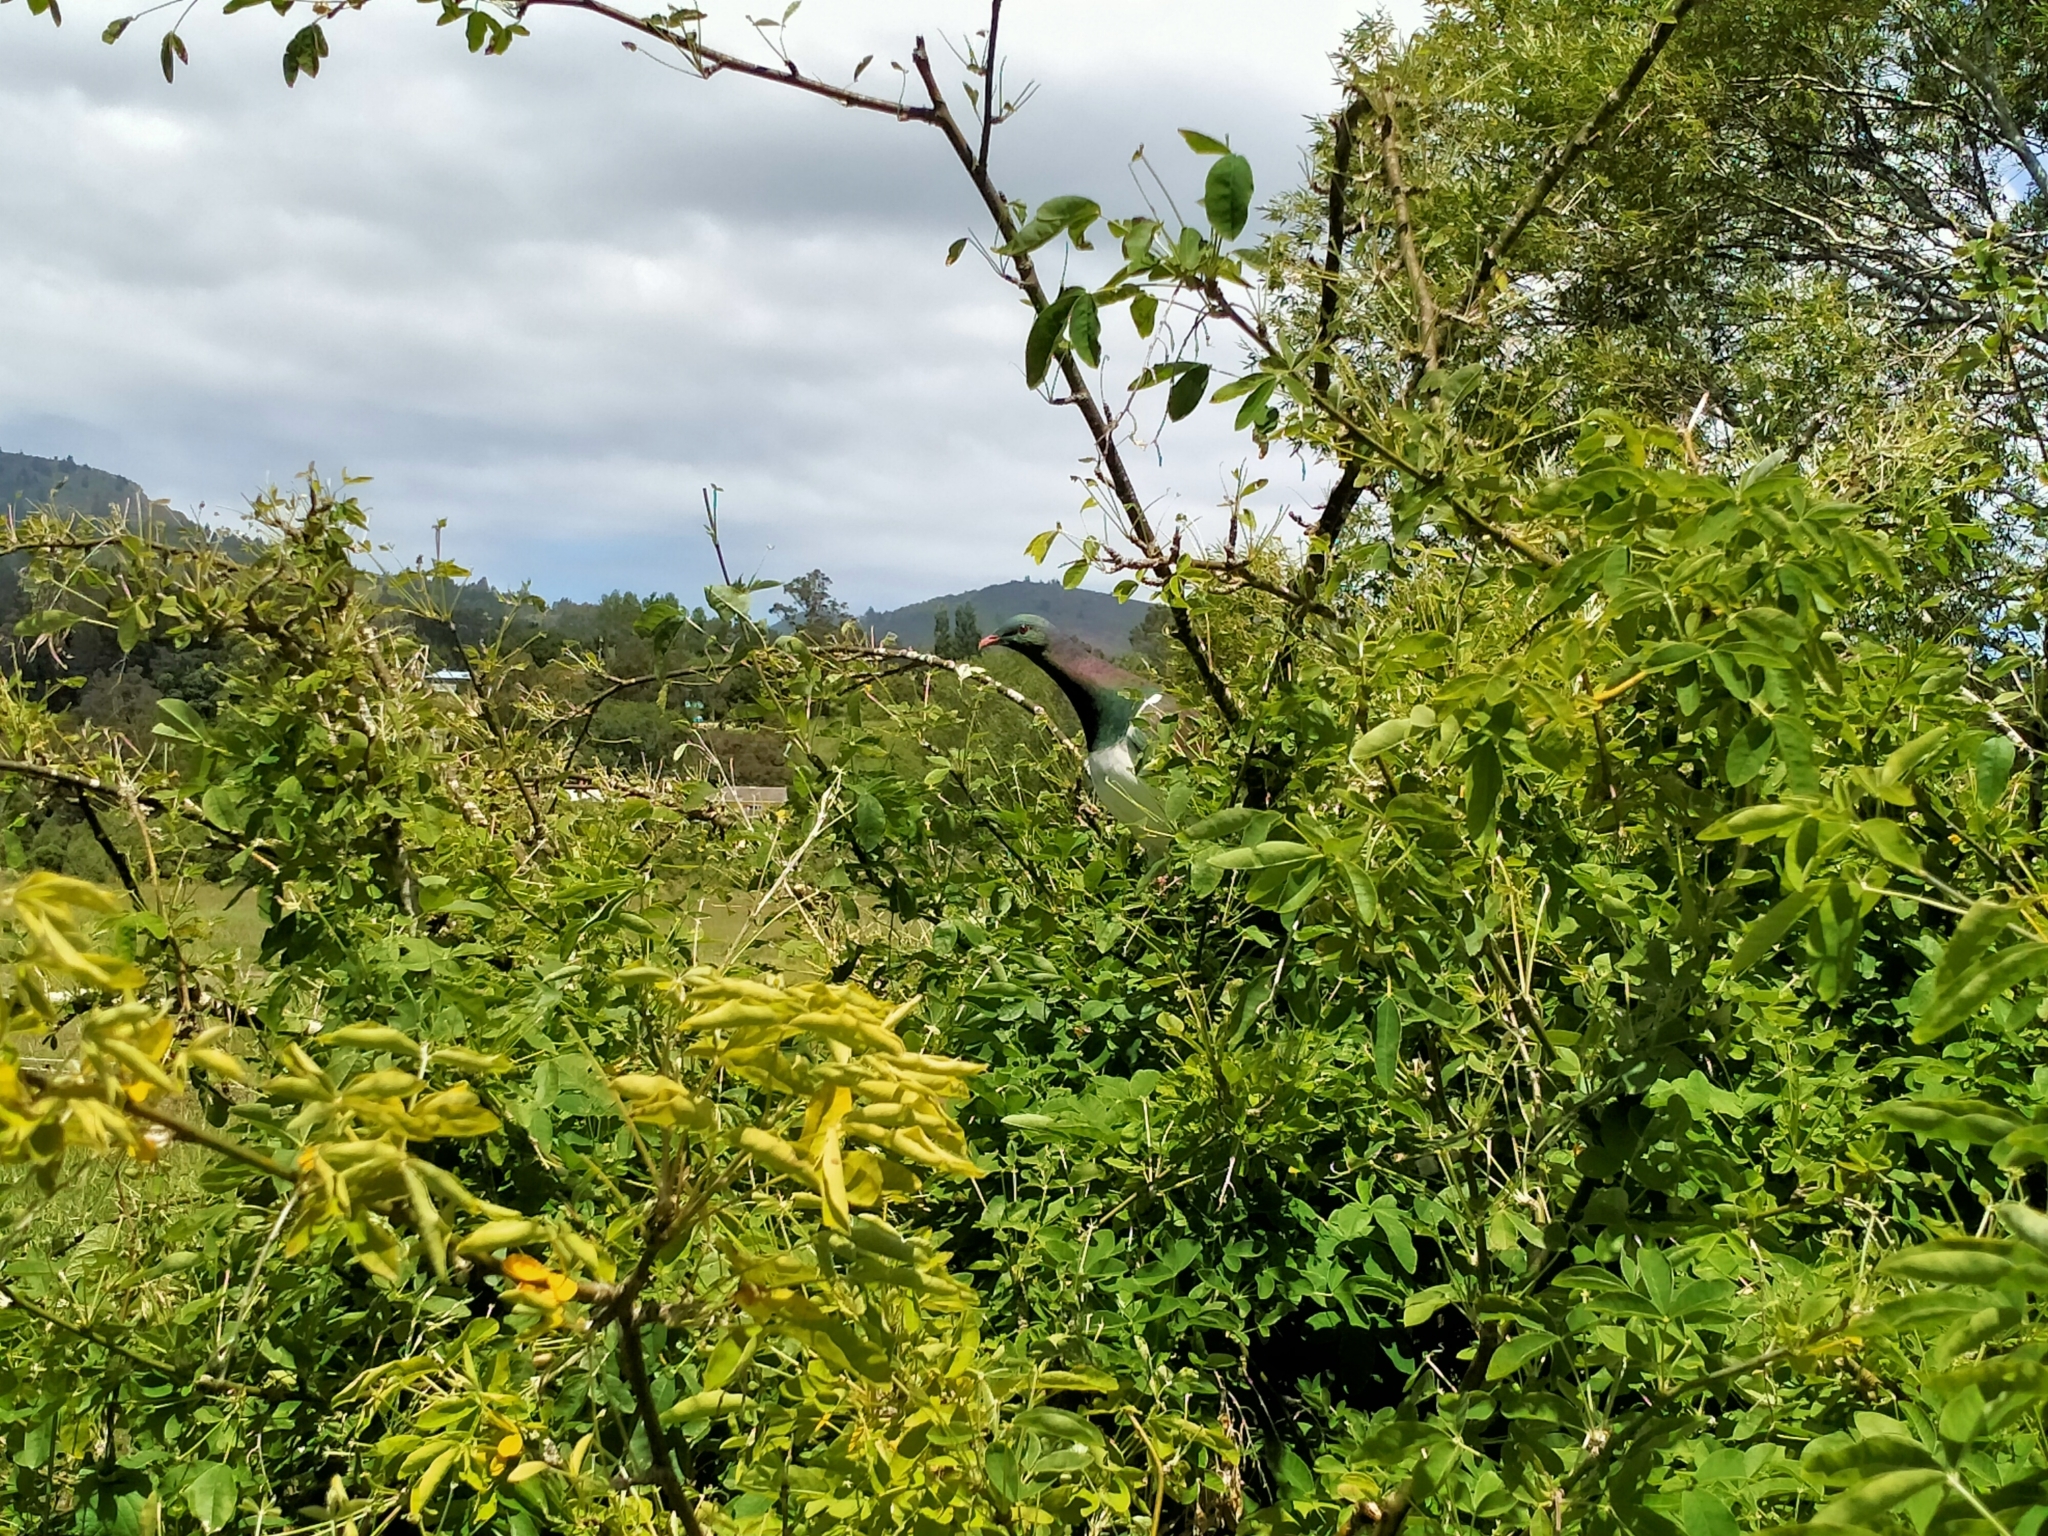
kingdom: Animalia
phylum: Chordata
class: Aves
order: Columbiformes
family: Columbidae
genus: Hemiphaga
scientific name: Hemiphaga novaeseelandiae
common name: New zealand pigeon
